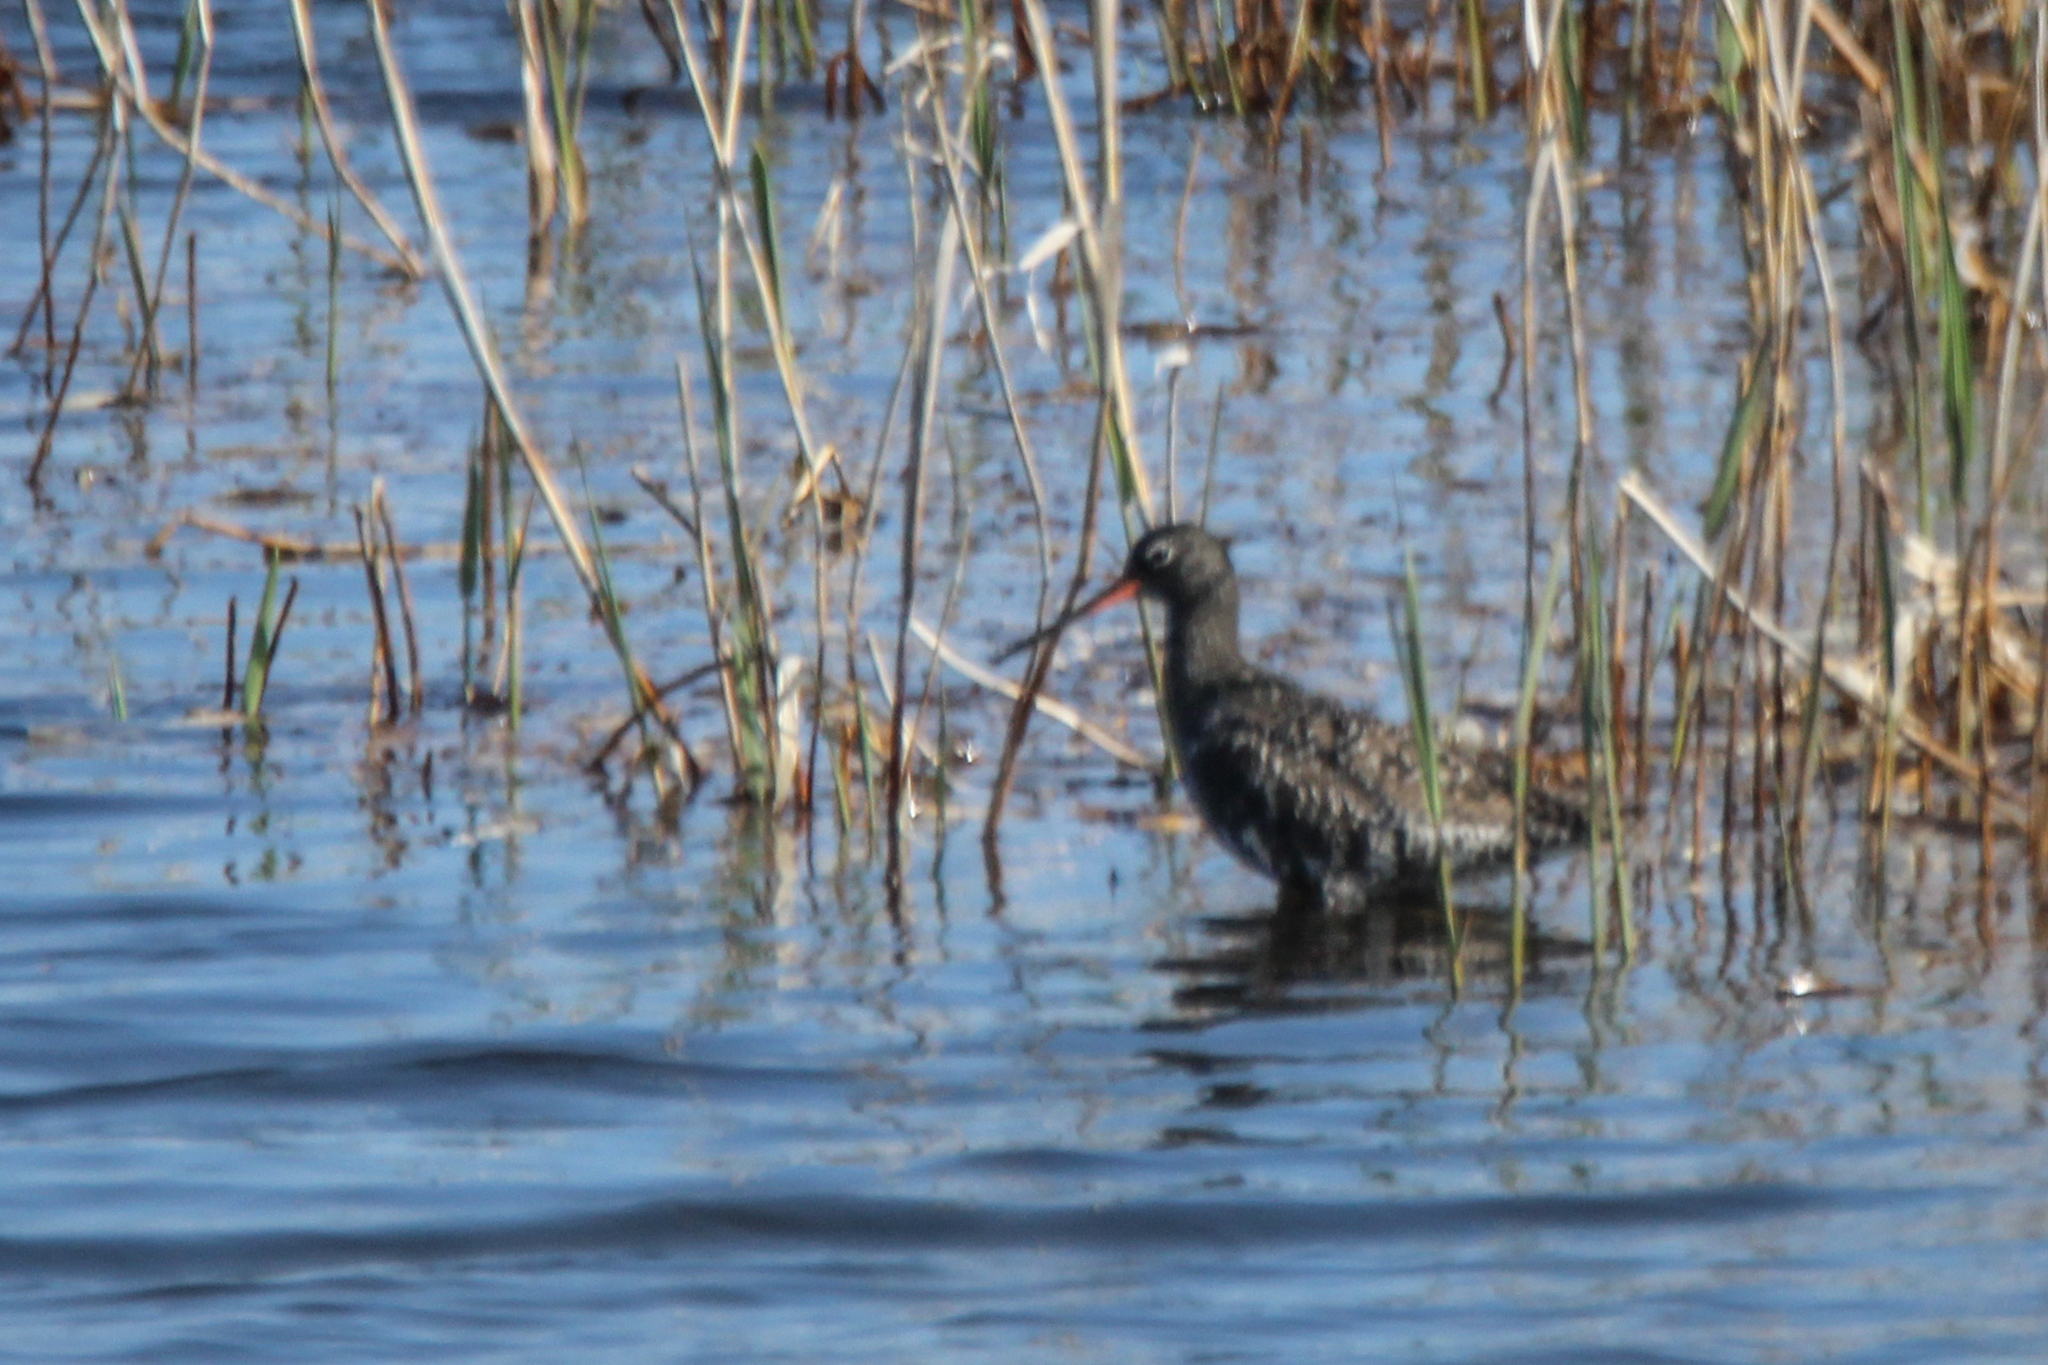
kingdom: Animalia
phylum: Chordata
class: Aves
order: Charadriiformes
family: Scolopacidae
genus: Tringa
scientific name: Tringa erythropus
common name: Spotted redshank
